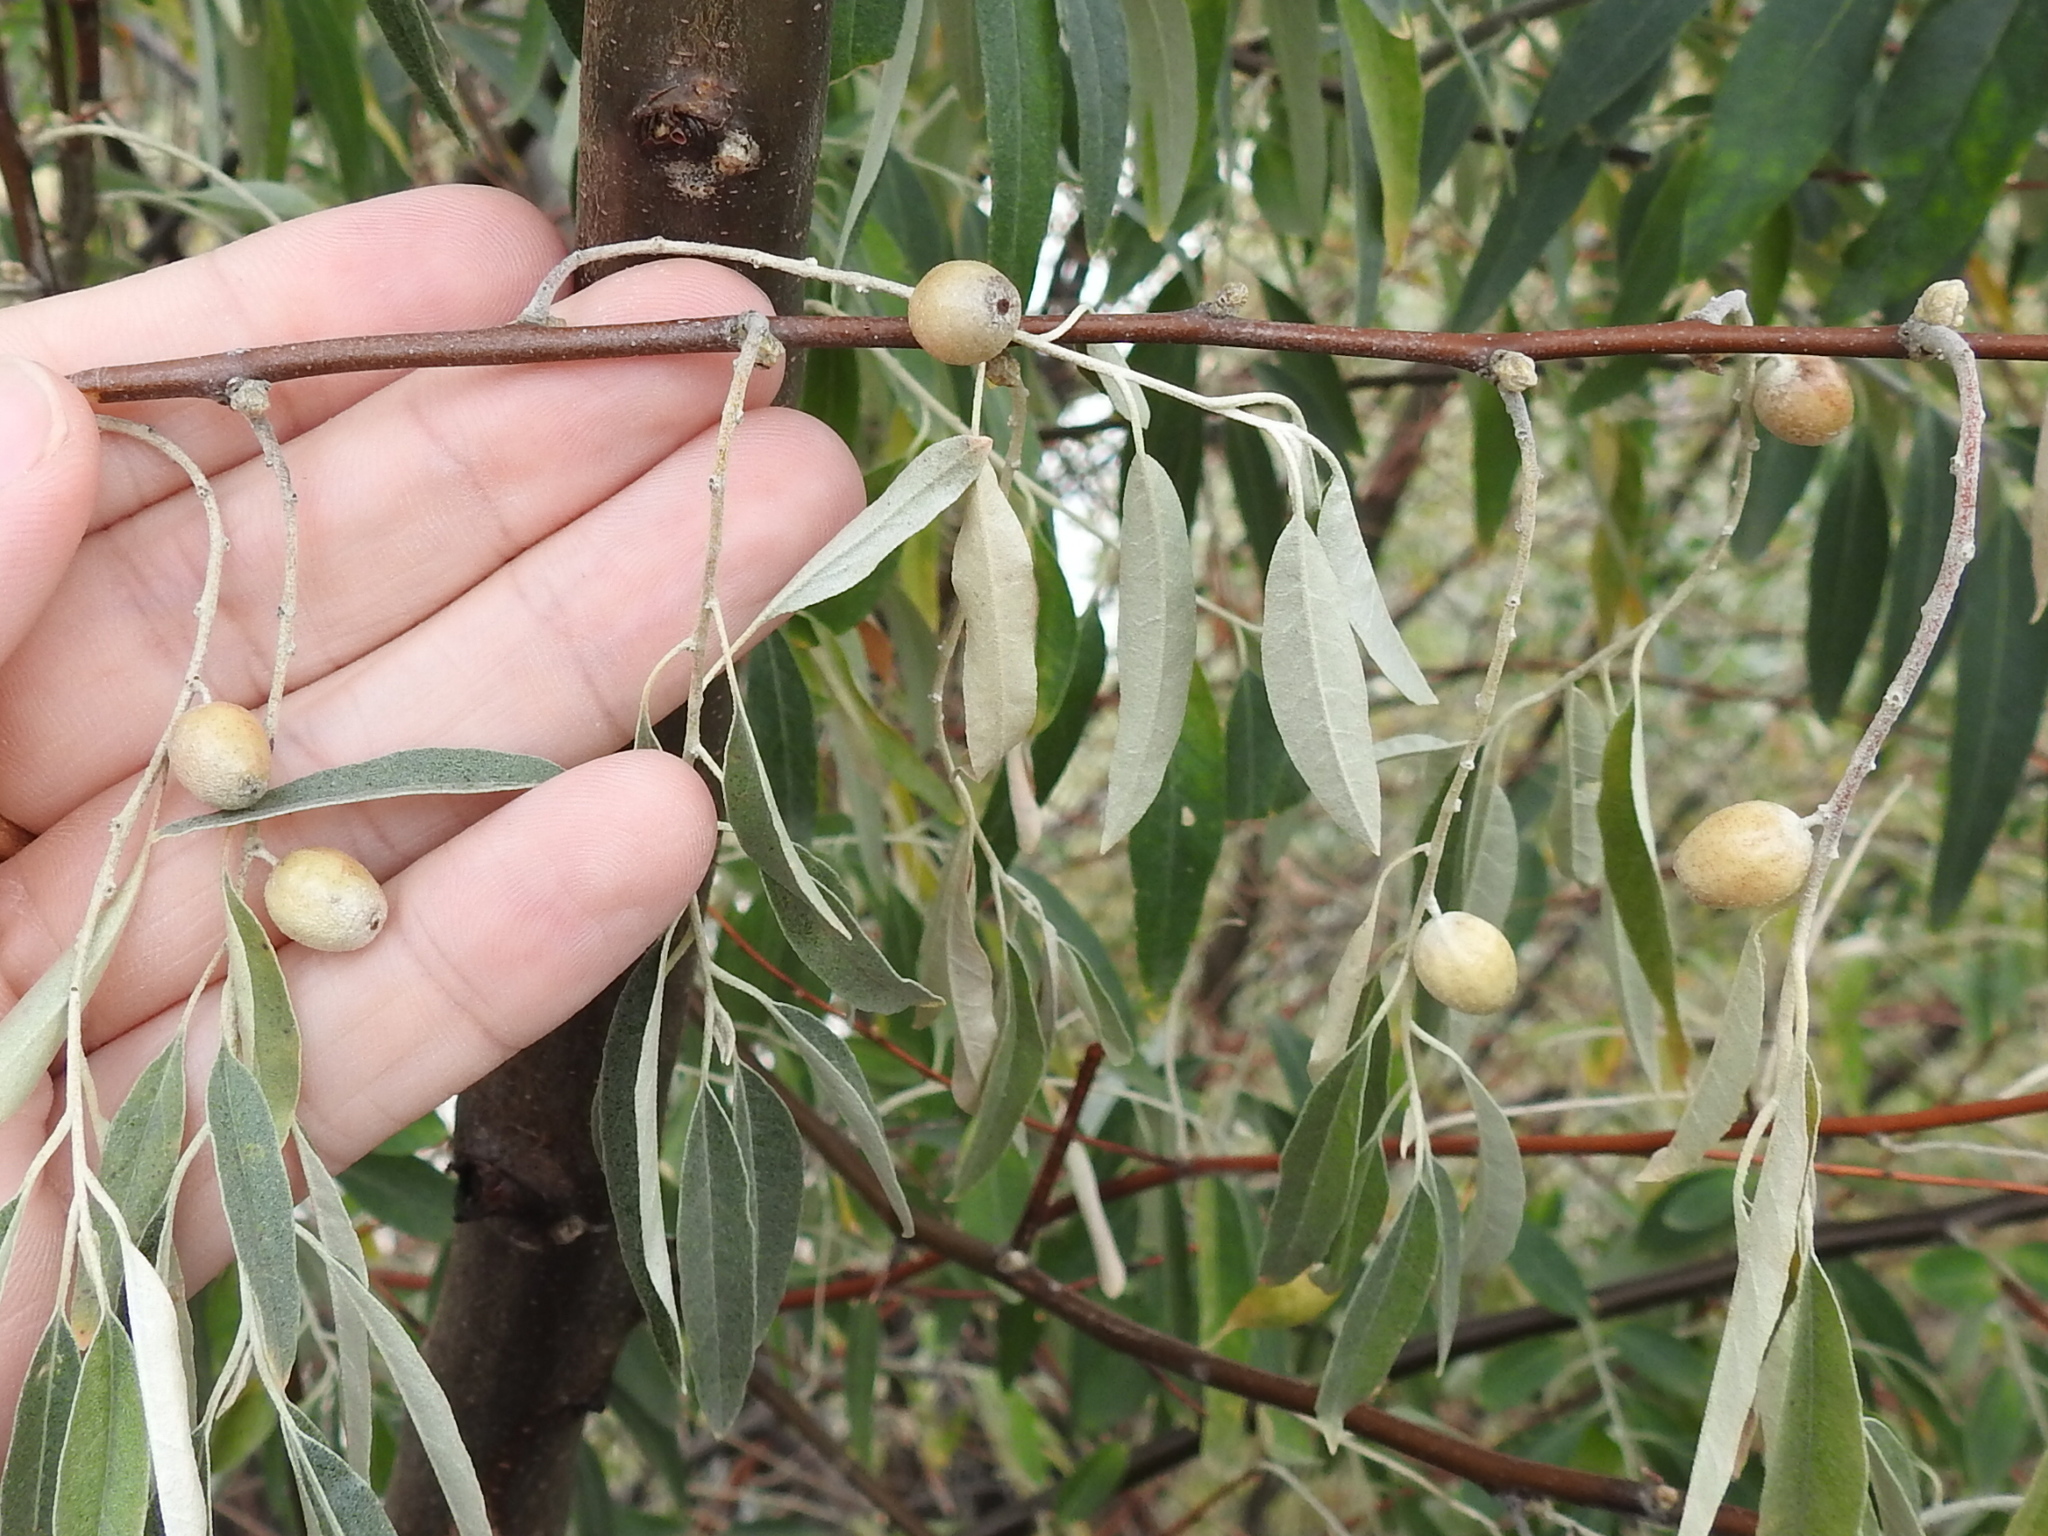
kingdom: Plantae
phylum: Tracheophyta
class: Magnoliopsida
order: Rosales
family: Elaeagnaceae
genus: Elaeagnus
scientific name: Elaeagnus angustifolia
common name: Russian olive
